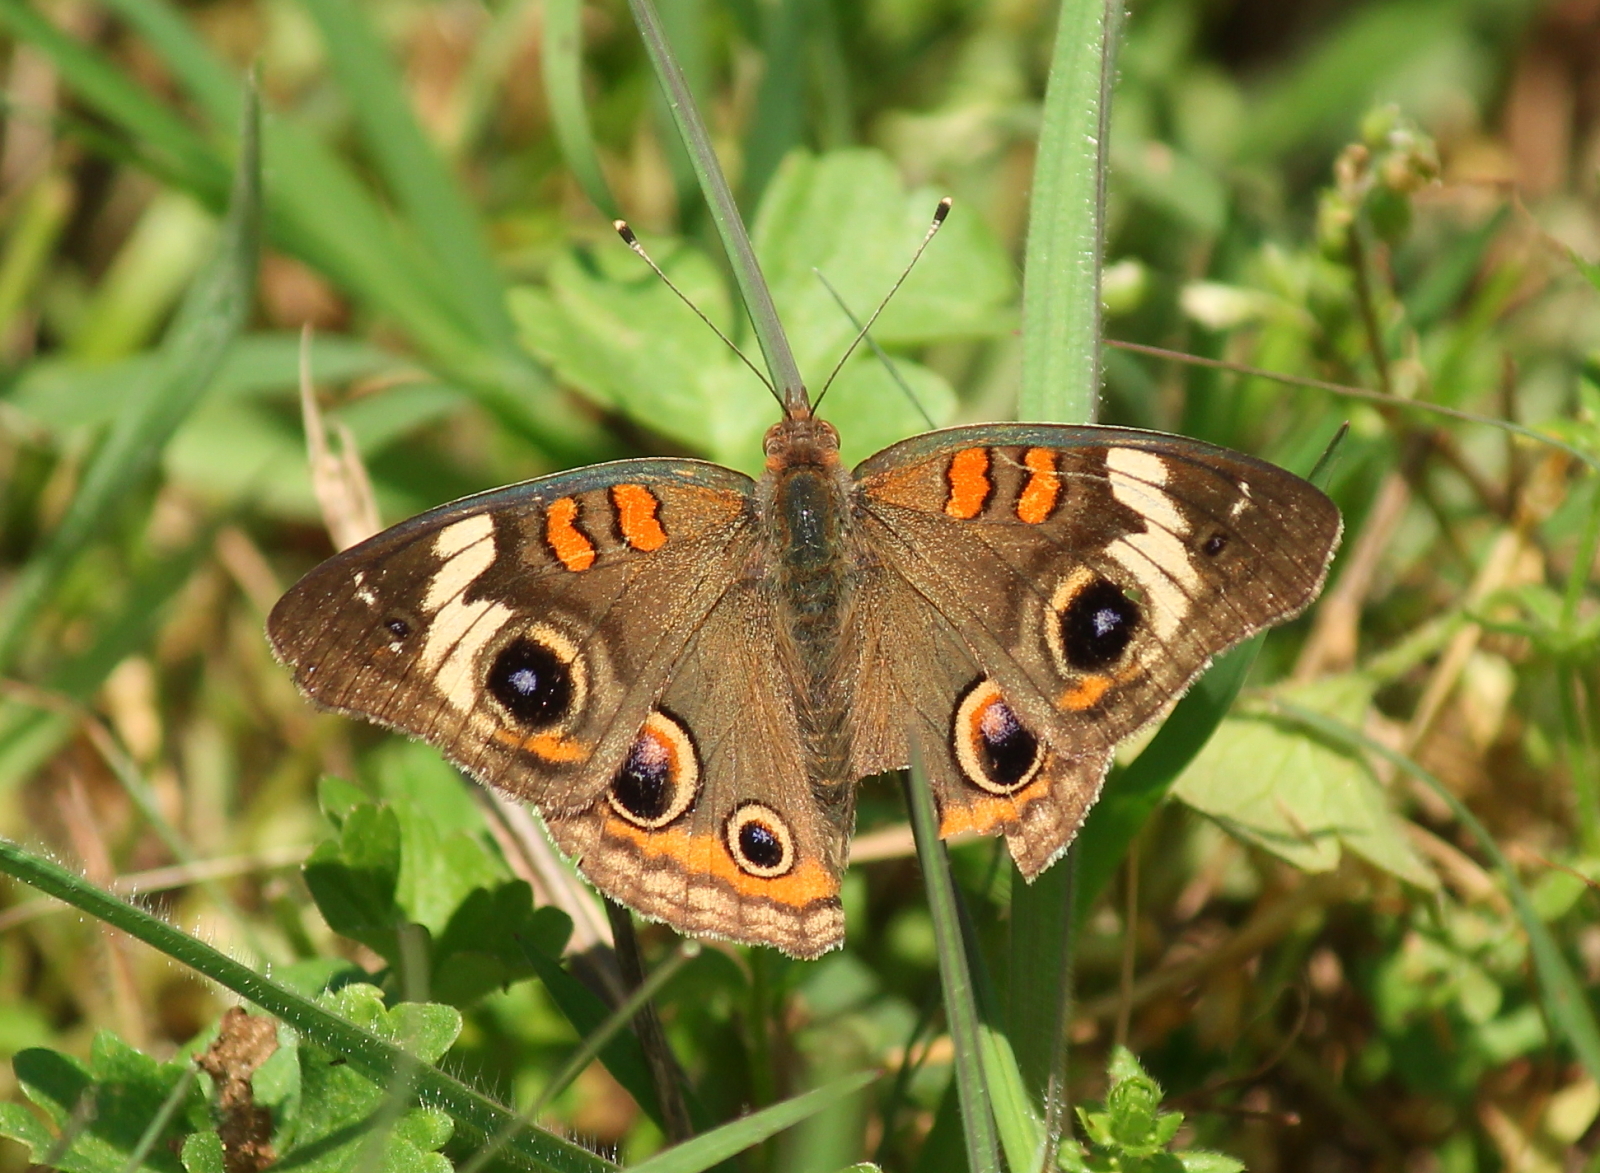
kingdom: Animalia
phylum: Arthropoda
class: Insecta
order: Lepidoptera
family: Nymphalidae
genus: Junonia
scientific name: Junonia coenia
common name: Common buckeye
